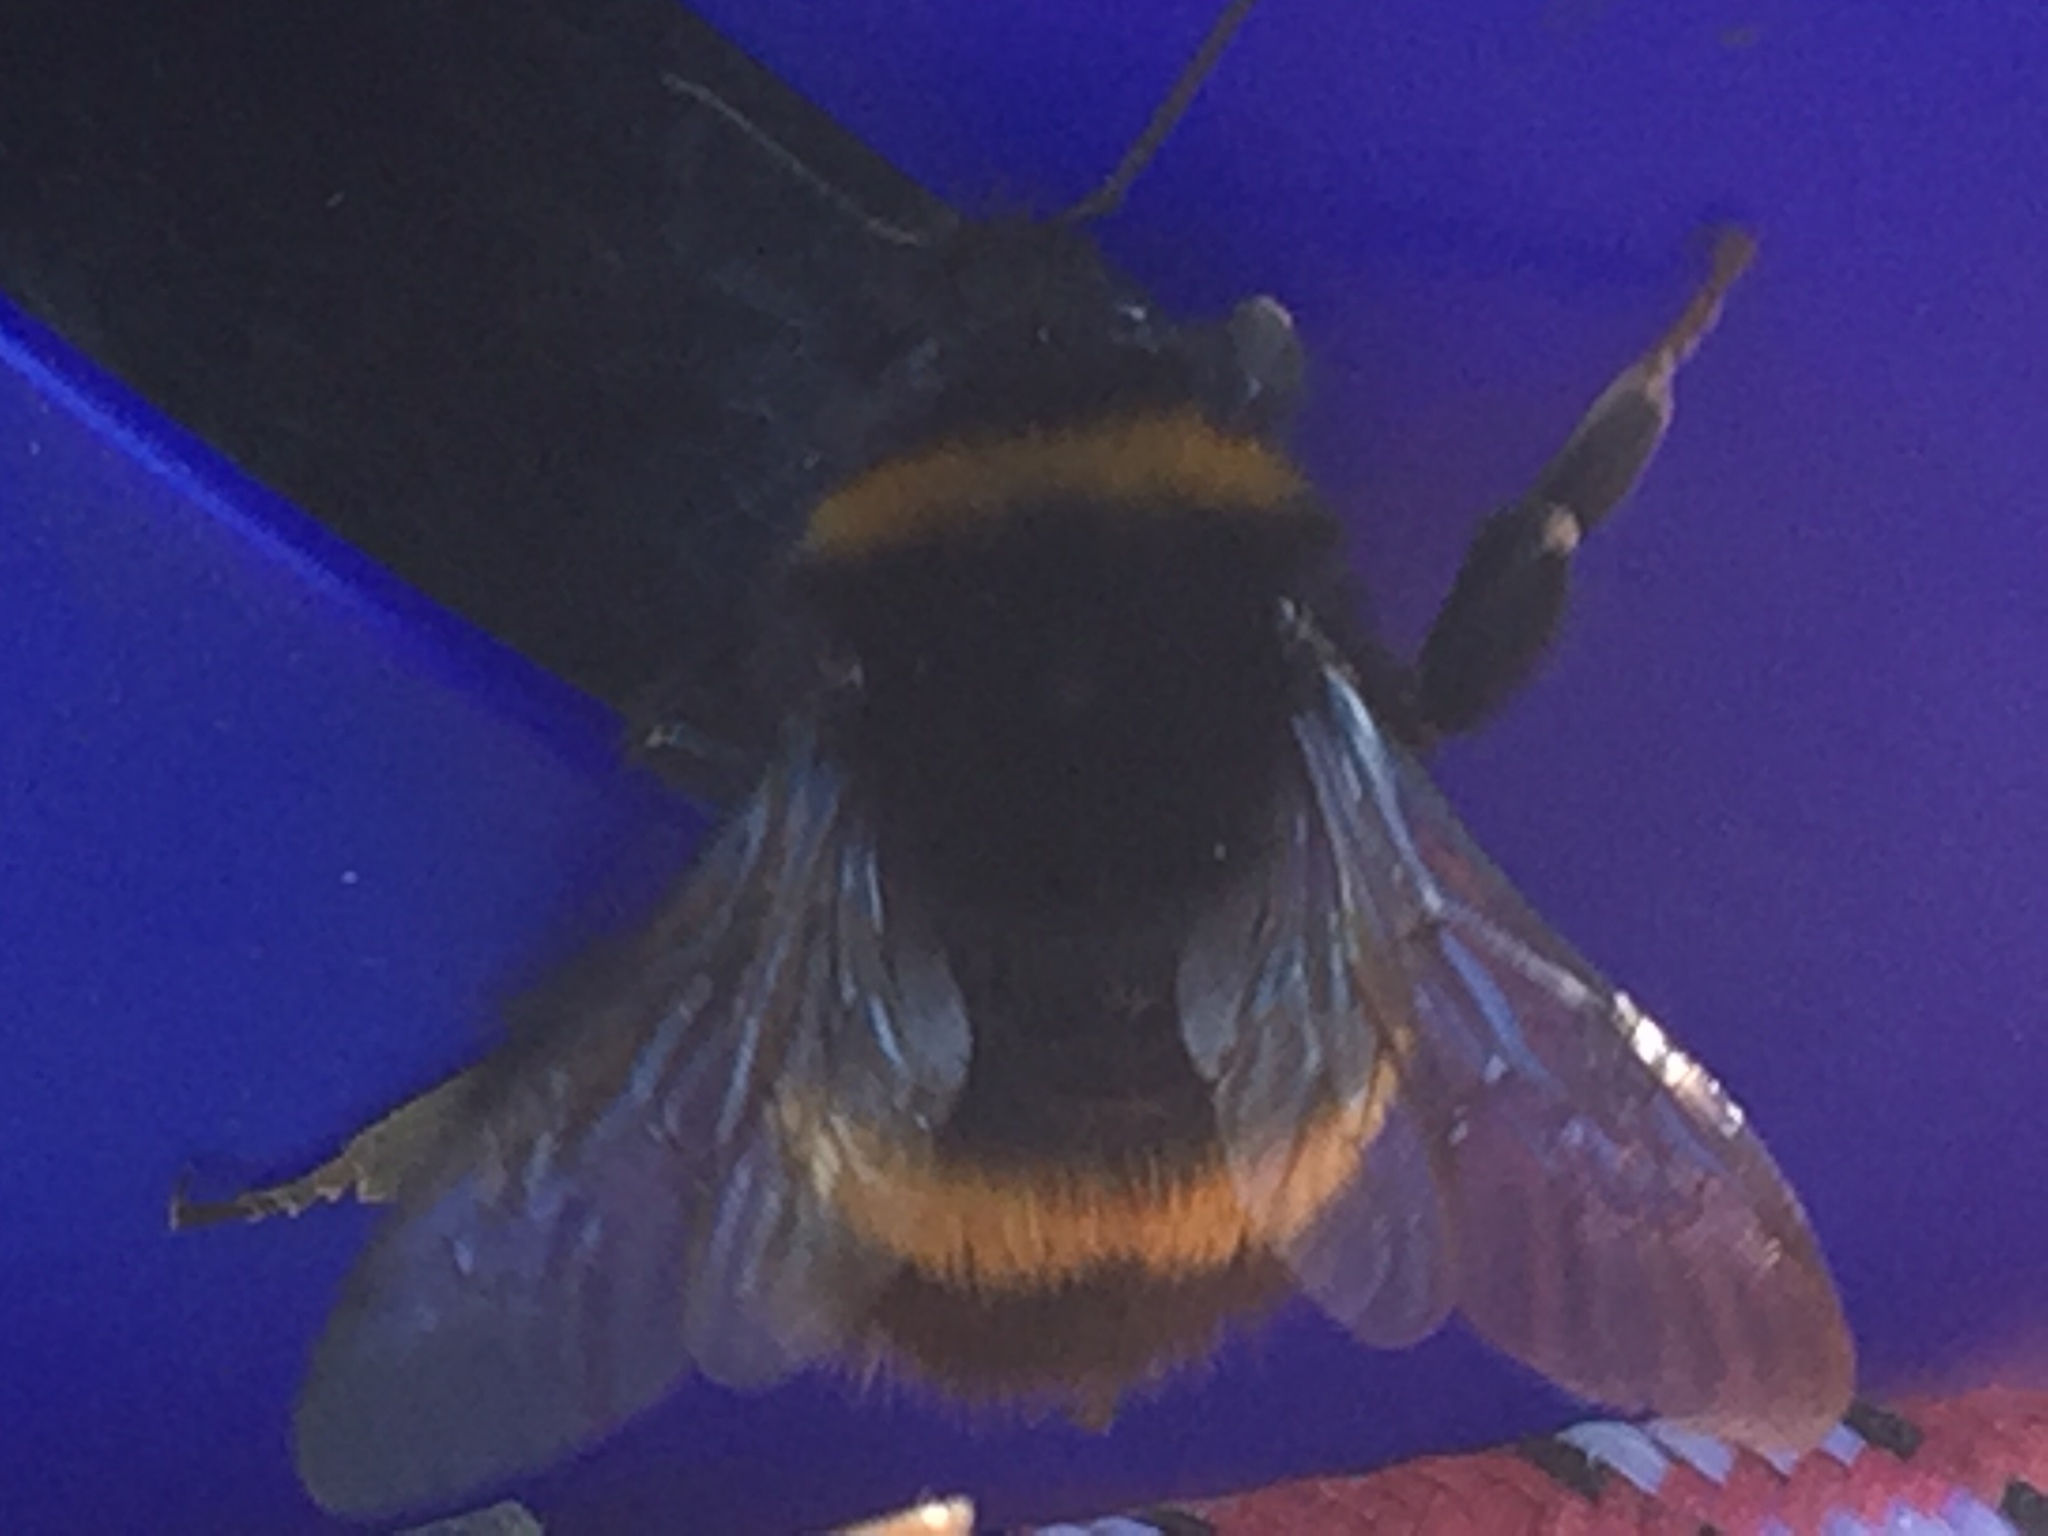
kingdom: Animalia
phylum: Arthropoda
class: Insecta
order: Hymenoptera
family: Apidae
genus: Bombus
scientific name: Bombus terrestris
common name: Buff-tailed bumblebee
